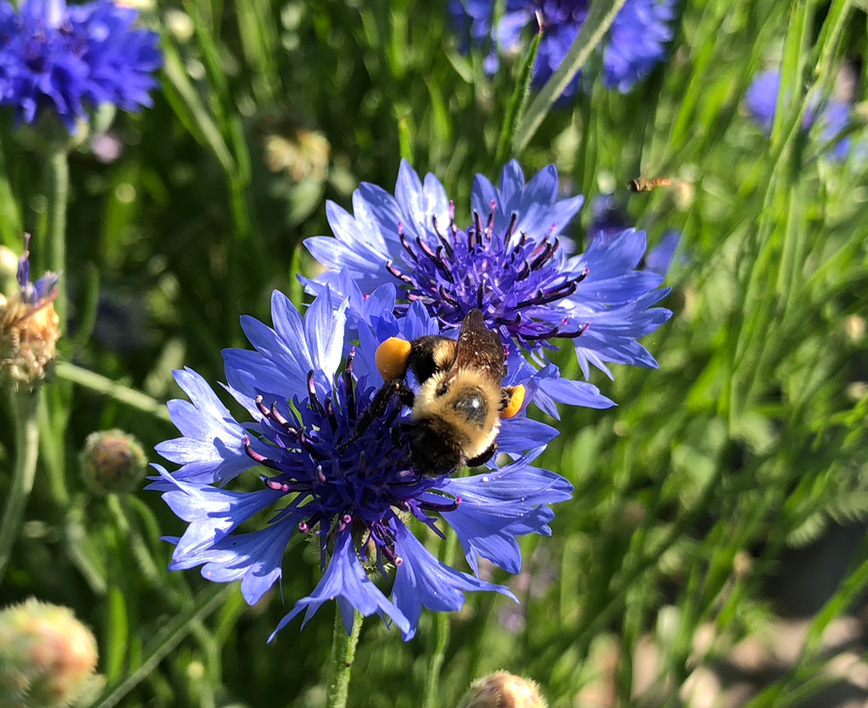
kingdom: Animalia
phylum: Arthropoda
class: Insecta
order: Hymenoptera
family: Apidae
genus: Bombus
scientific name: Bombus griseocollis
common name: Brown-belted bumble bee
